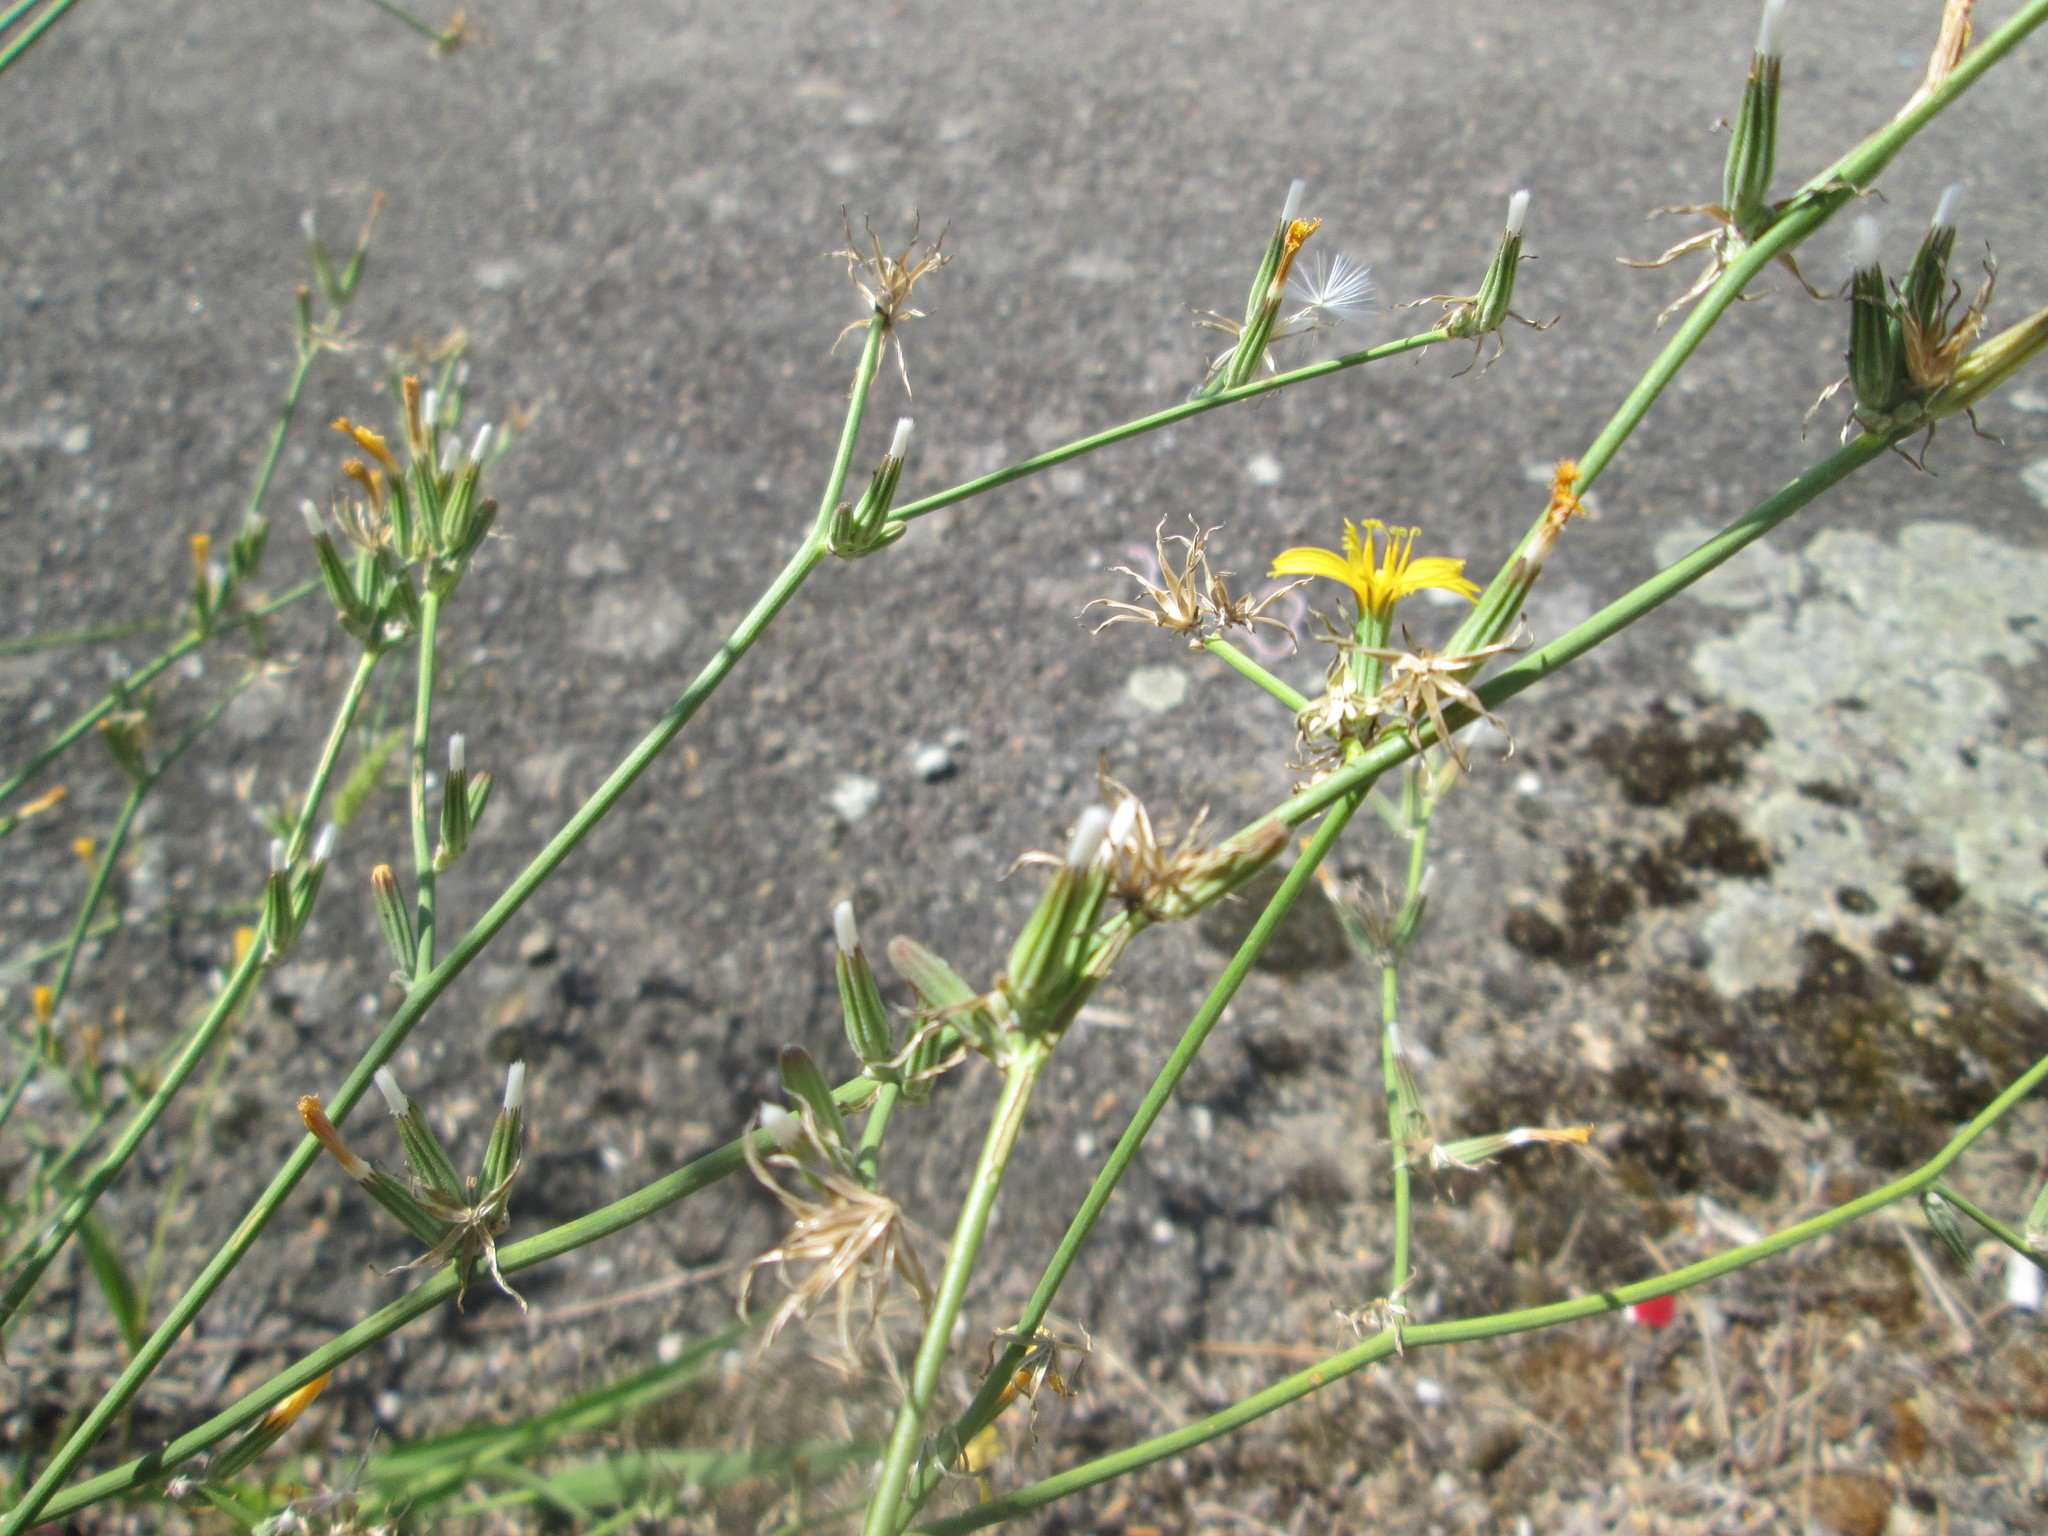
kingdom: Plantae
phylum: Tracheophyta
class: Magnoliopsida
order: Asterales
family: Asteraceae
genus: Chondrilla
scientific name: Chondrilla juncea
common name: Skeleton weed
